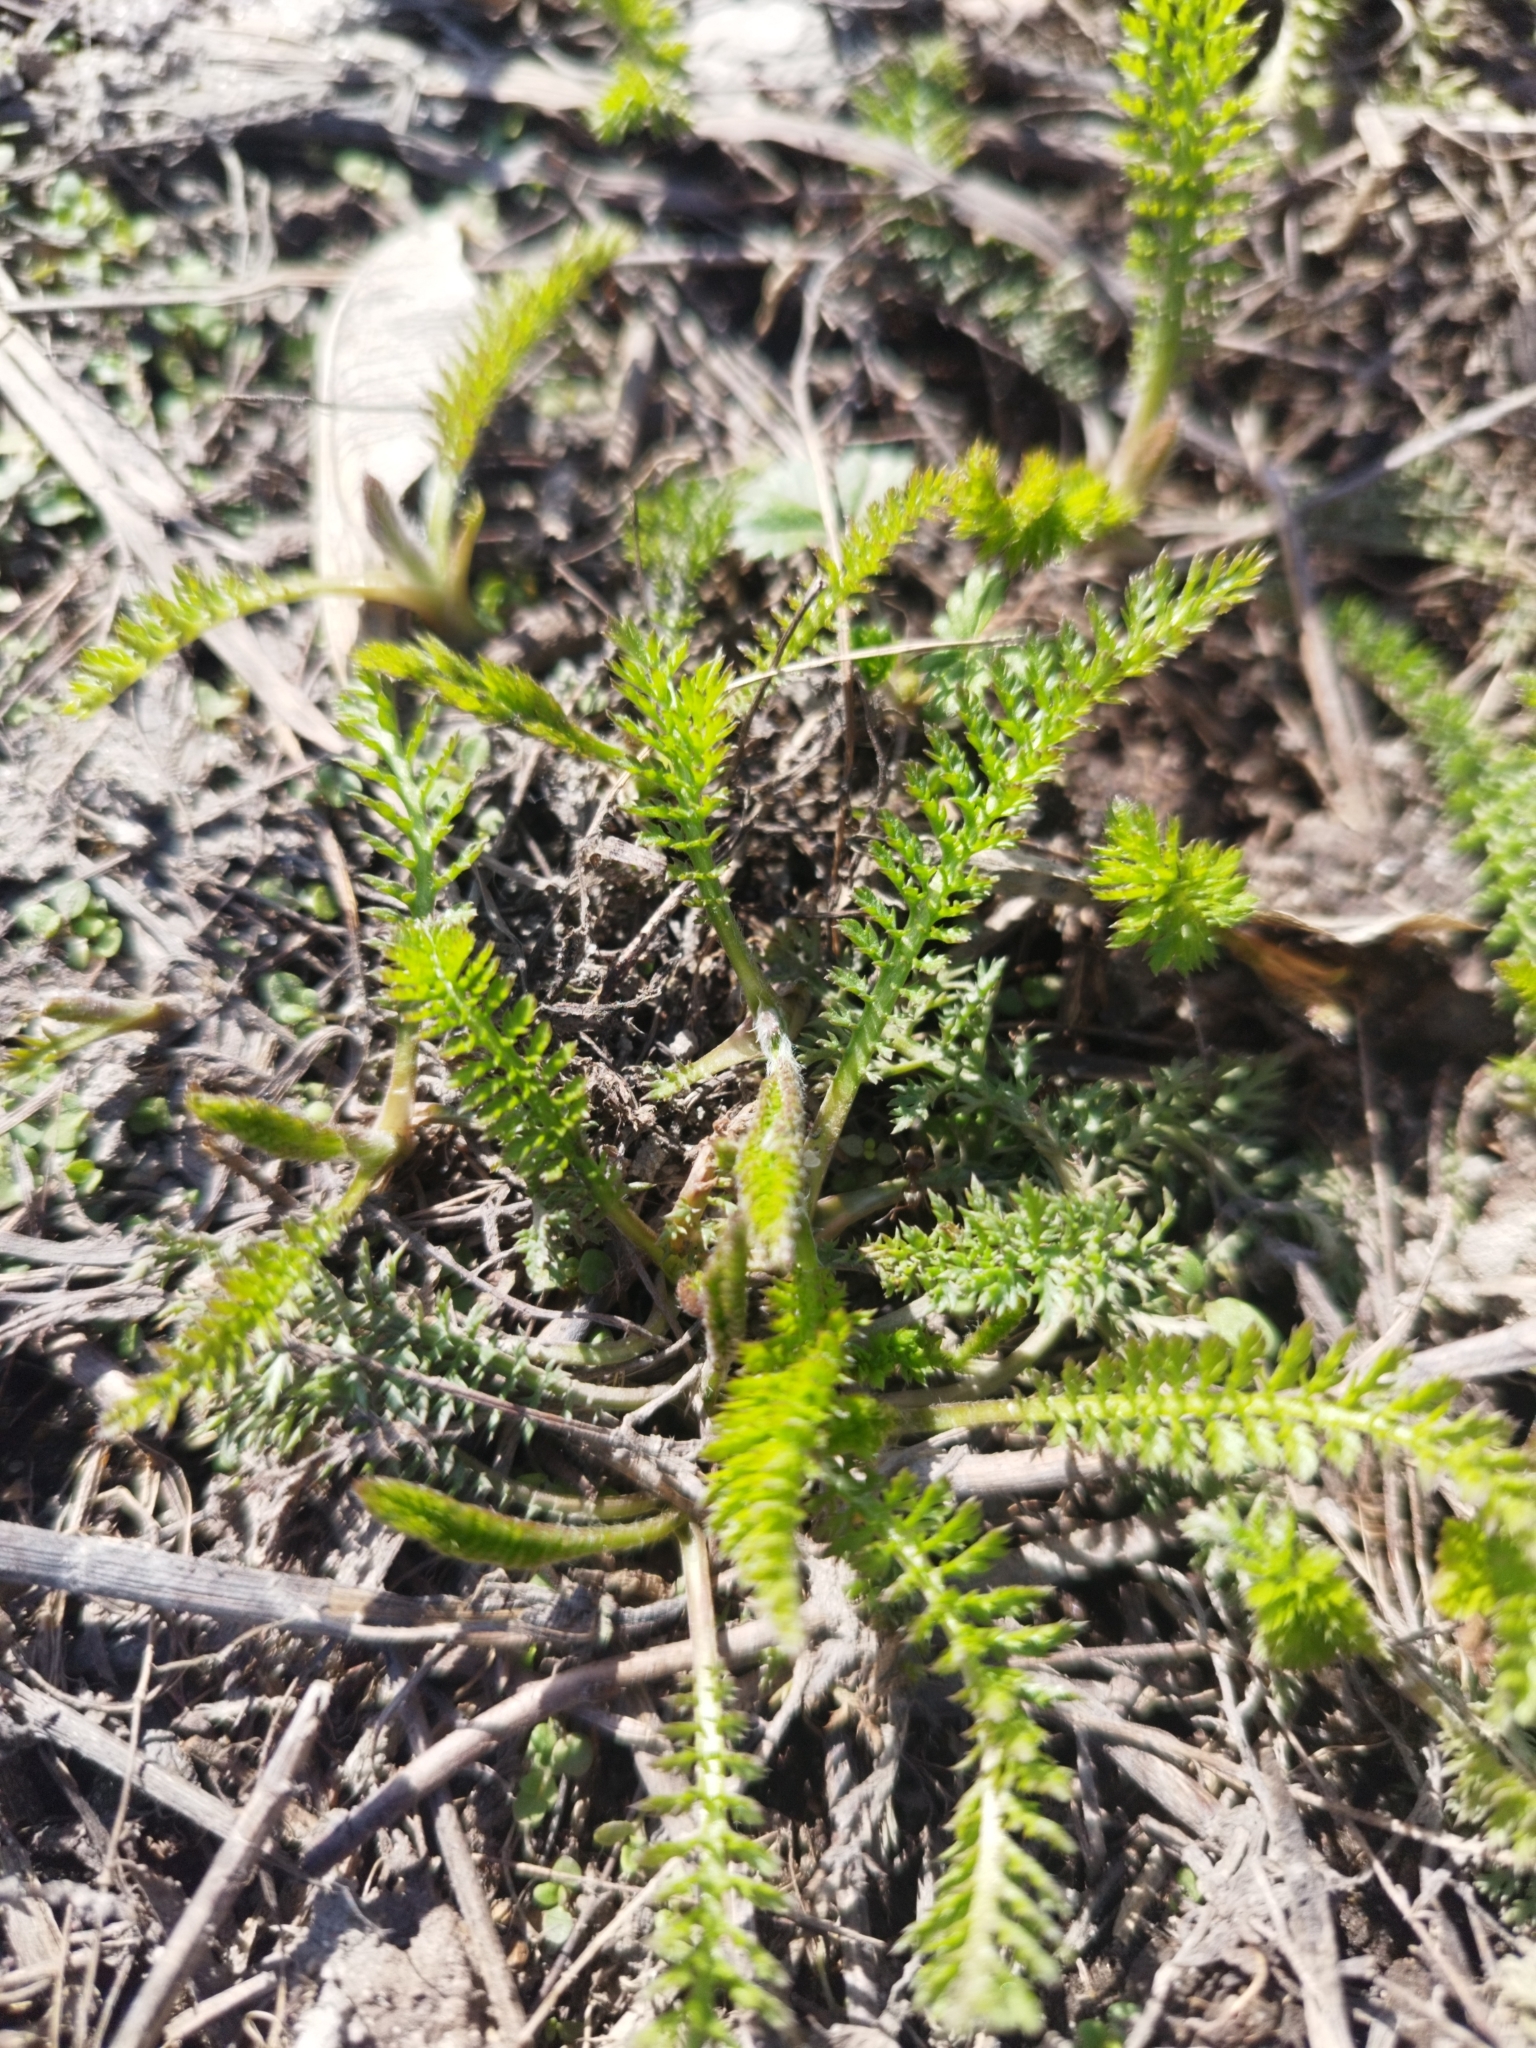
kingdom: Plantae
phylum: Tracheophyta
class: Magnoliopsida
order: Asterales
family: Asteraceae
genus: Achillea
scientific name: Achillea millefolium
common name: Yarrow
